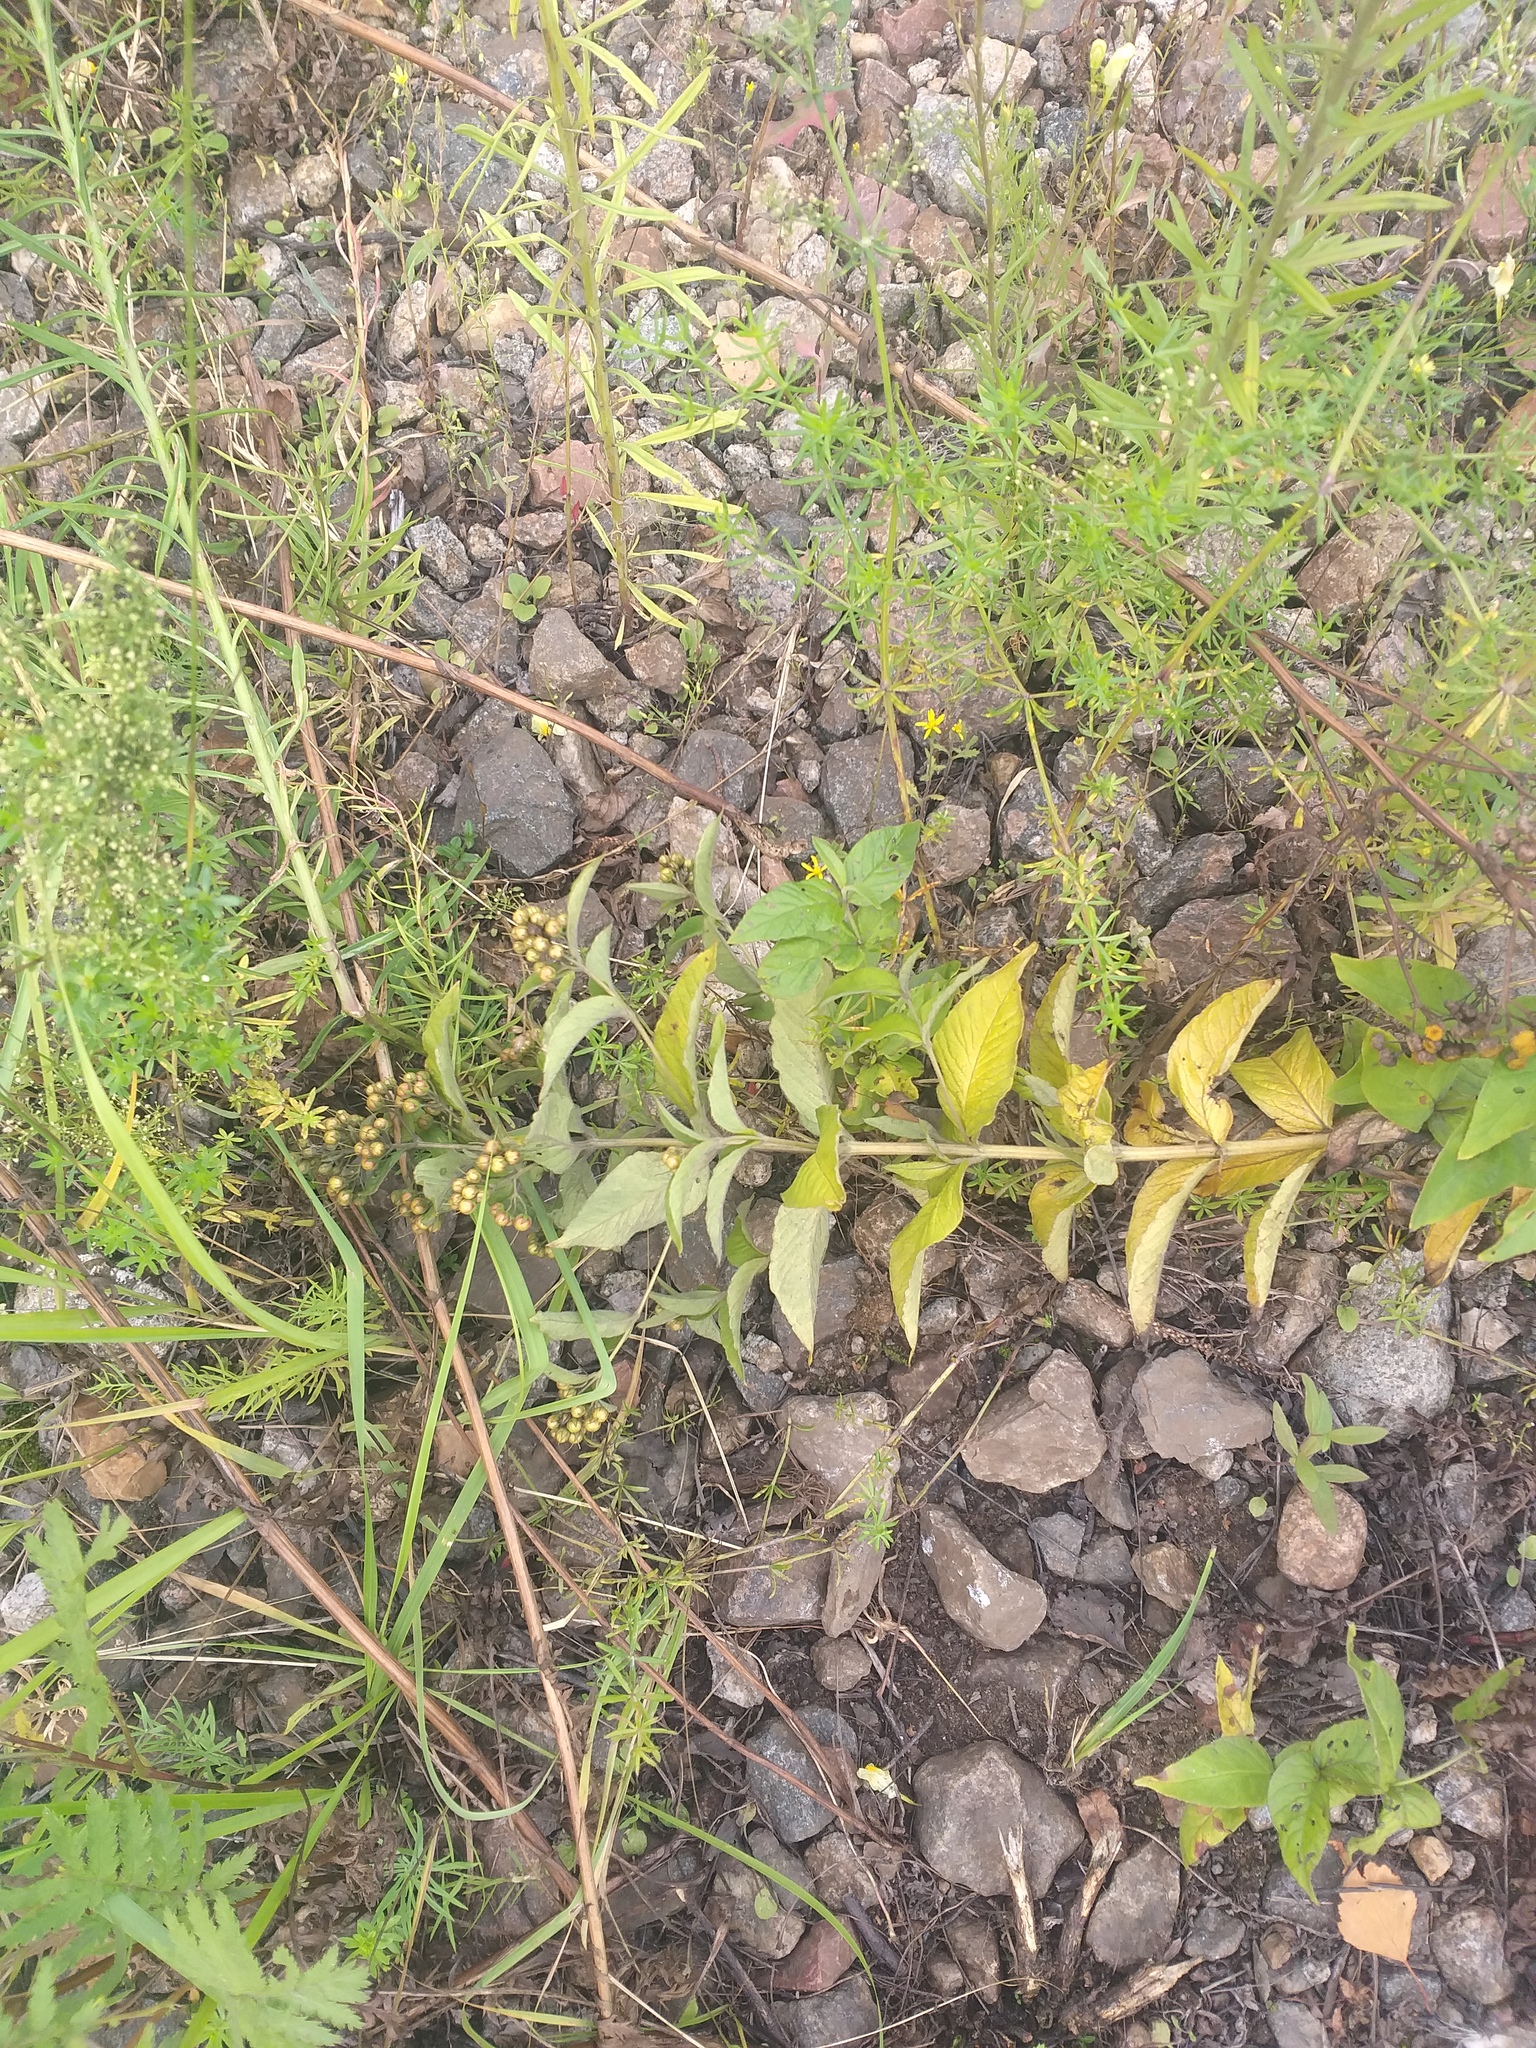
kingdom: Plantae
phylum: Tracheophyta
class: Magnoliopsida
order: Ericales
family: Primulaceae
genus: Lysimachia
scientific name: Lysimachia vulgaris
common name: Yellow loosestrife
